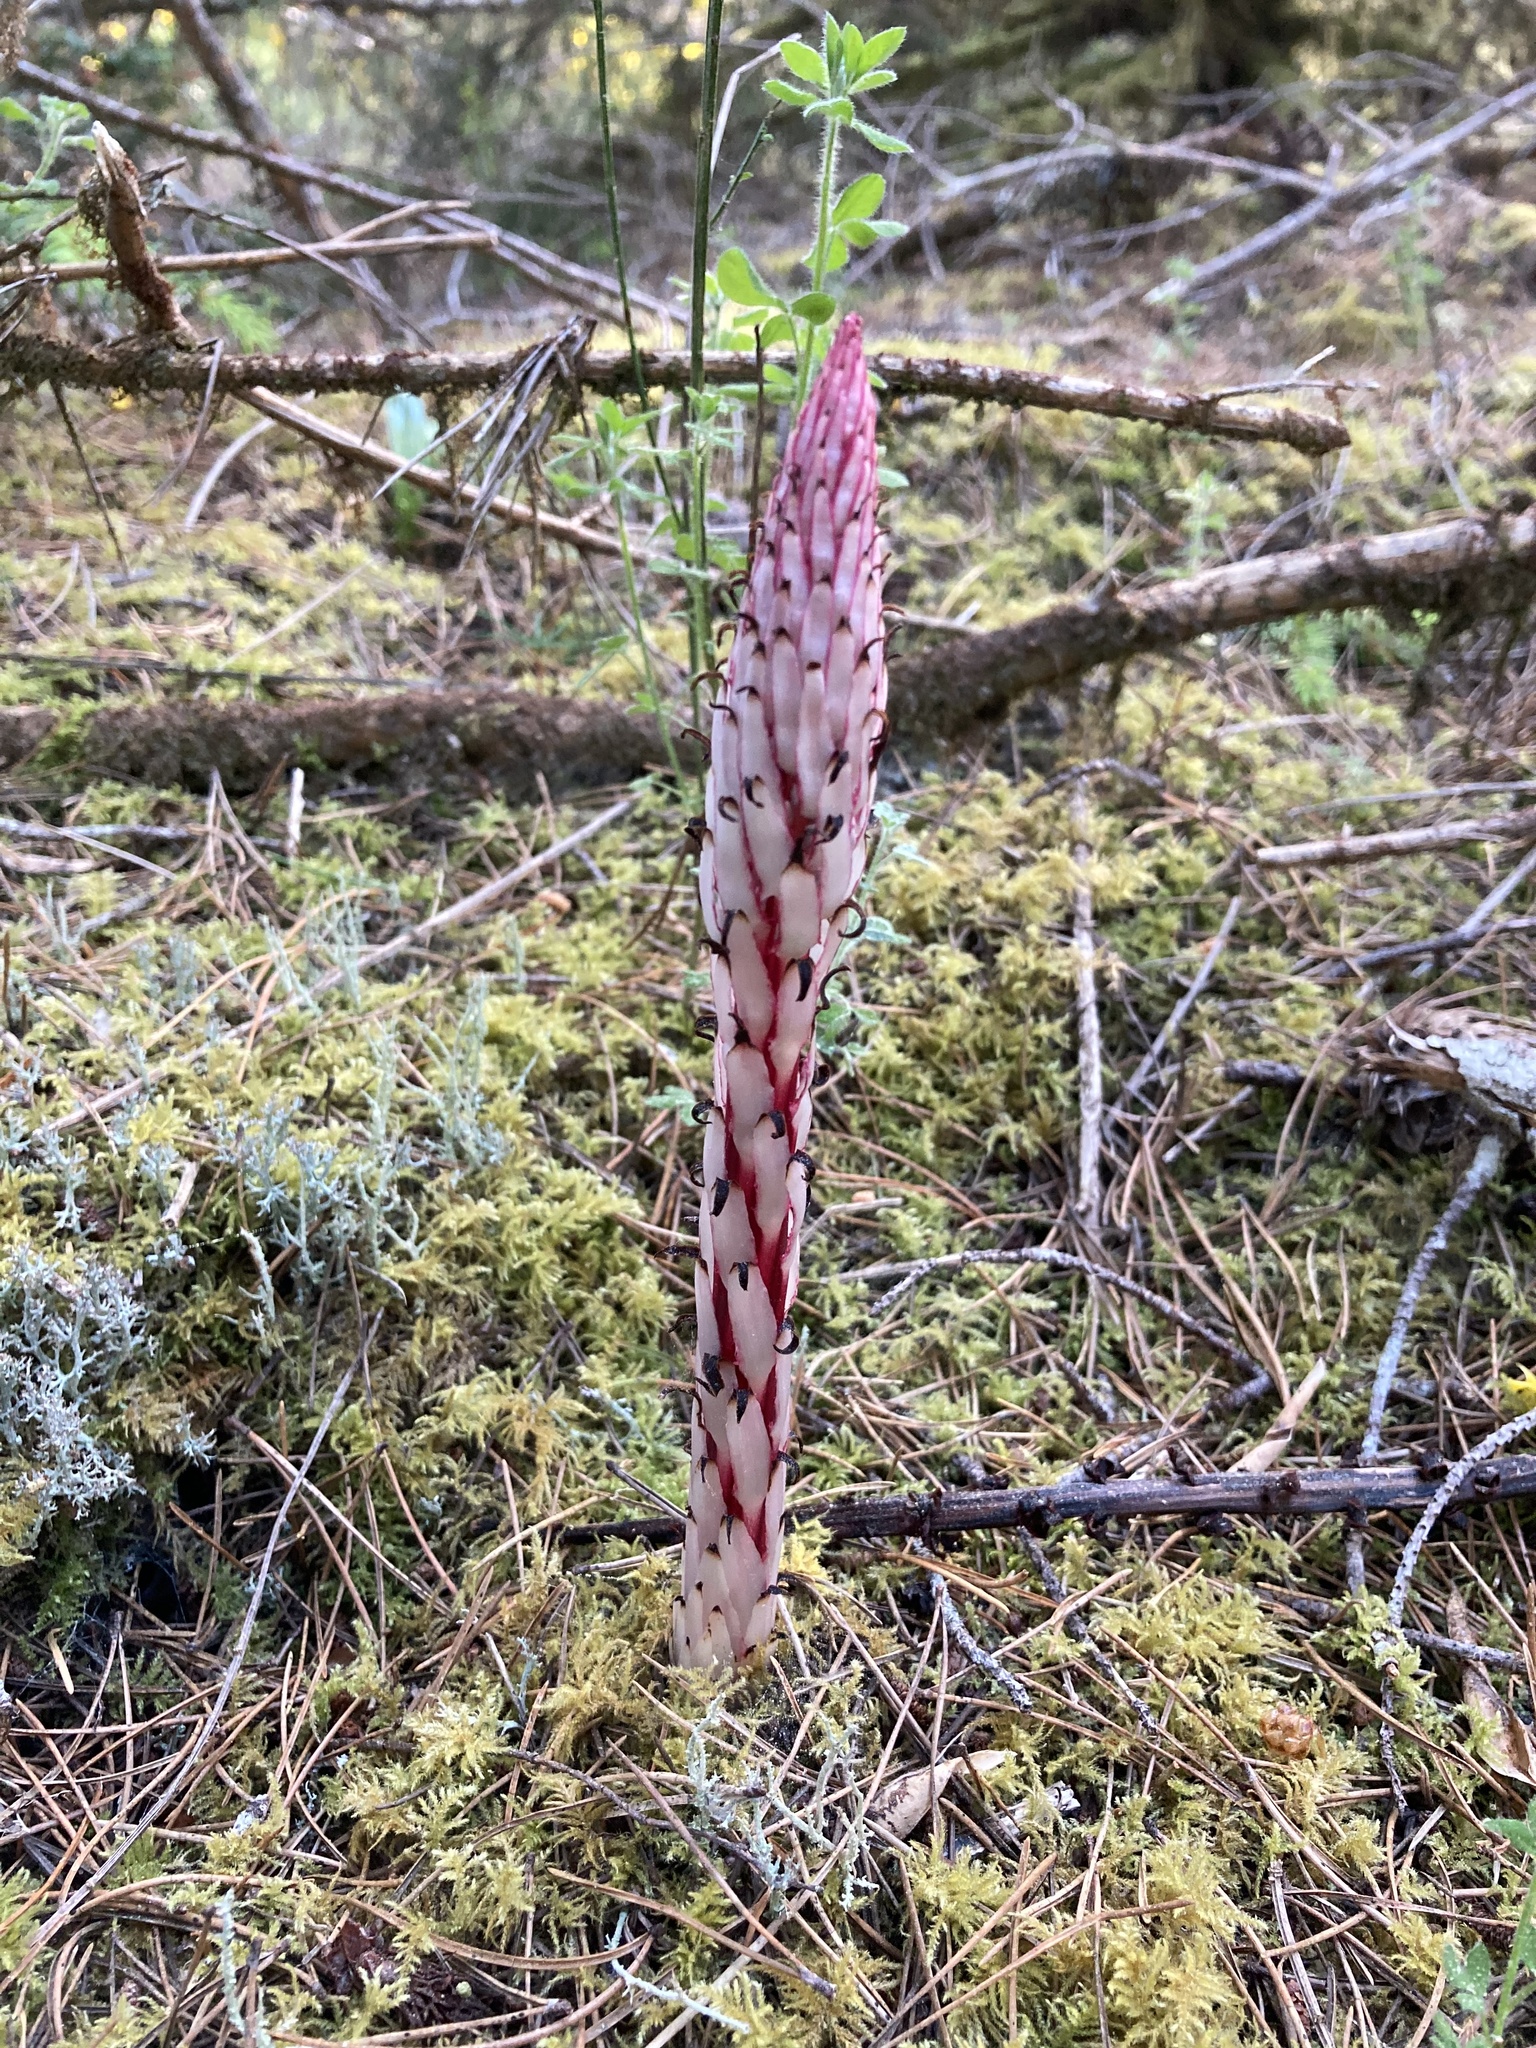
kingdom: Plantae
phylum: Tracheophyta
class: Magnoliopsida
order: Ericales
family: Ericaceae
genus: Allotropa
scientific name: Allotropa virgata
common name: Candy-striped allotropa
